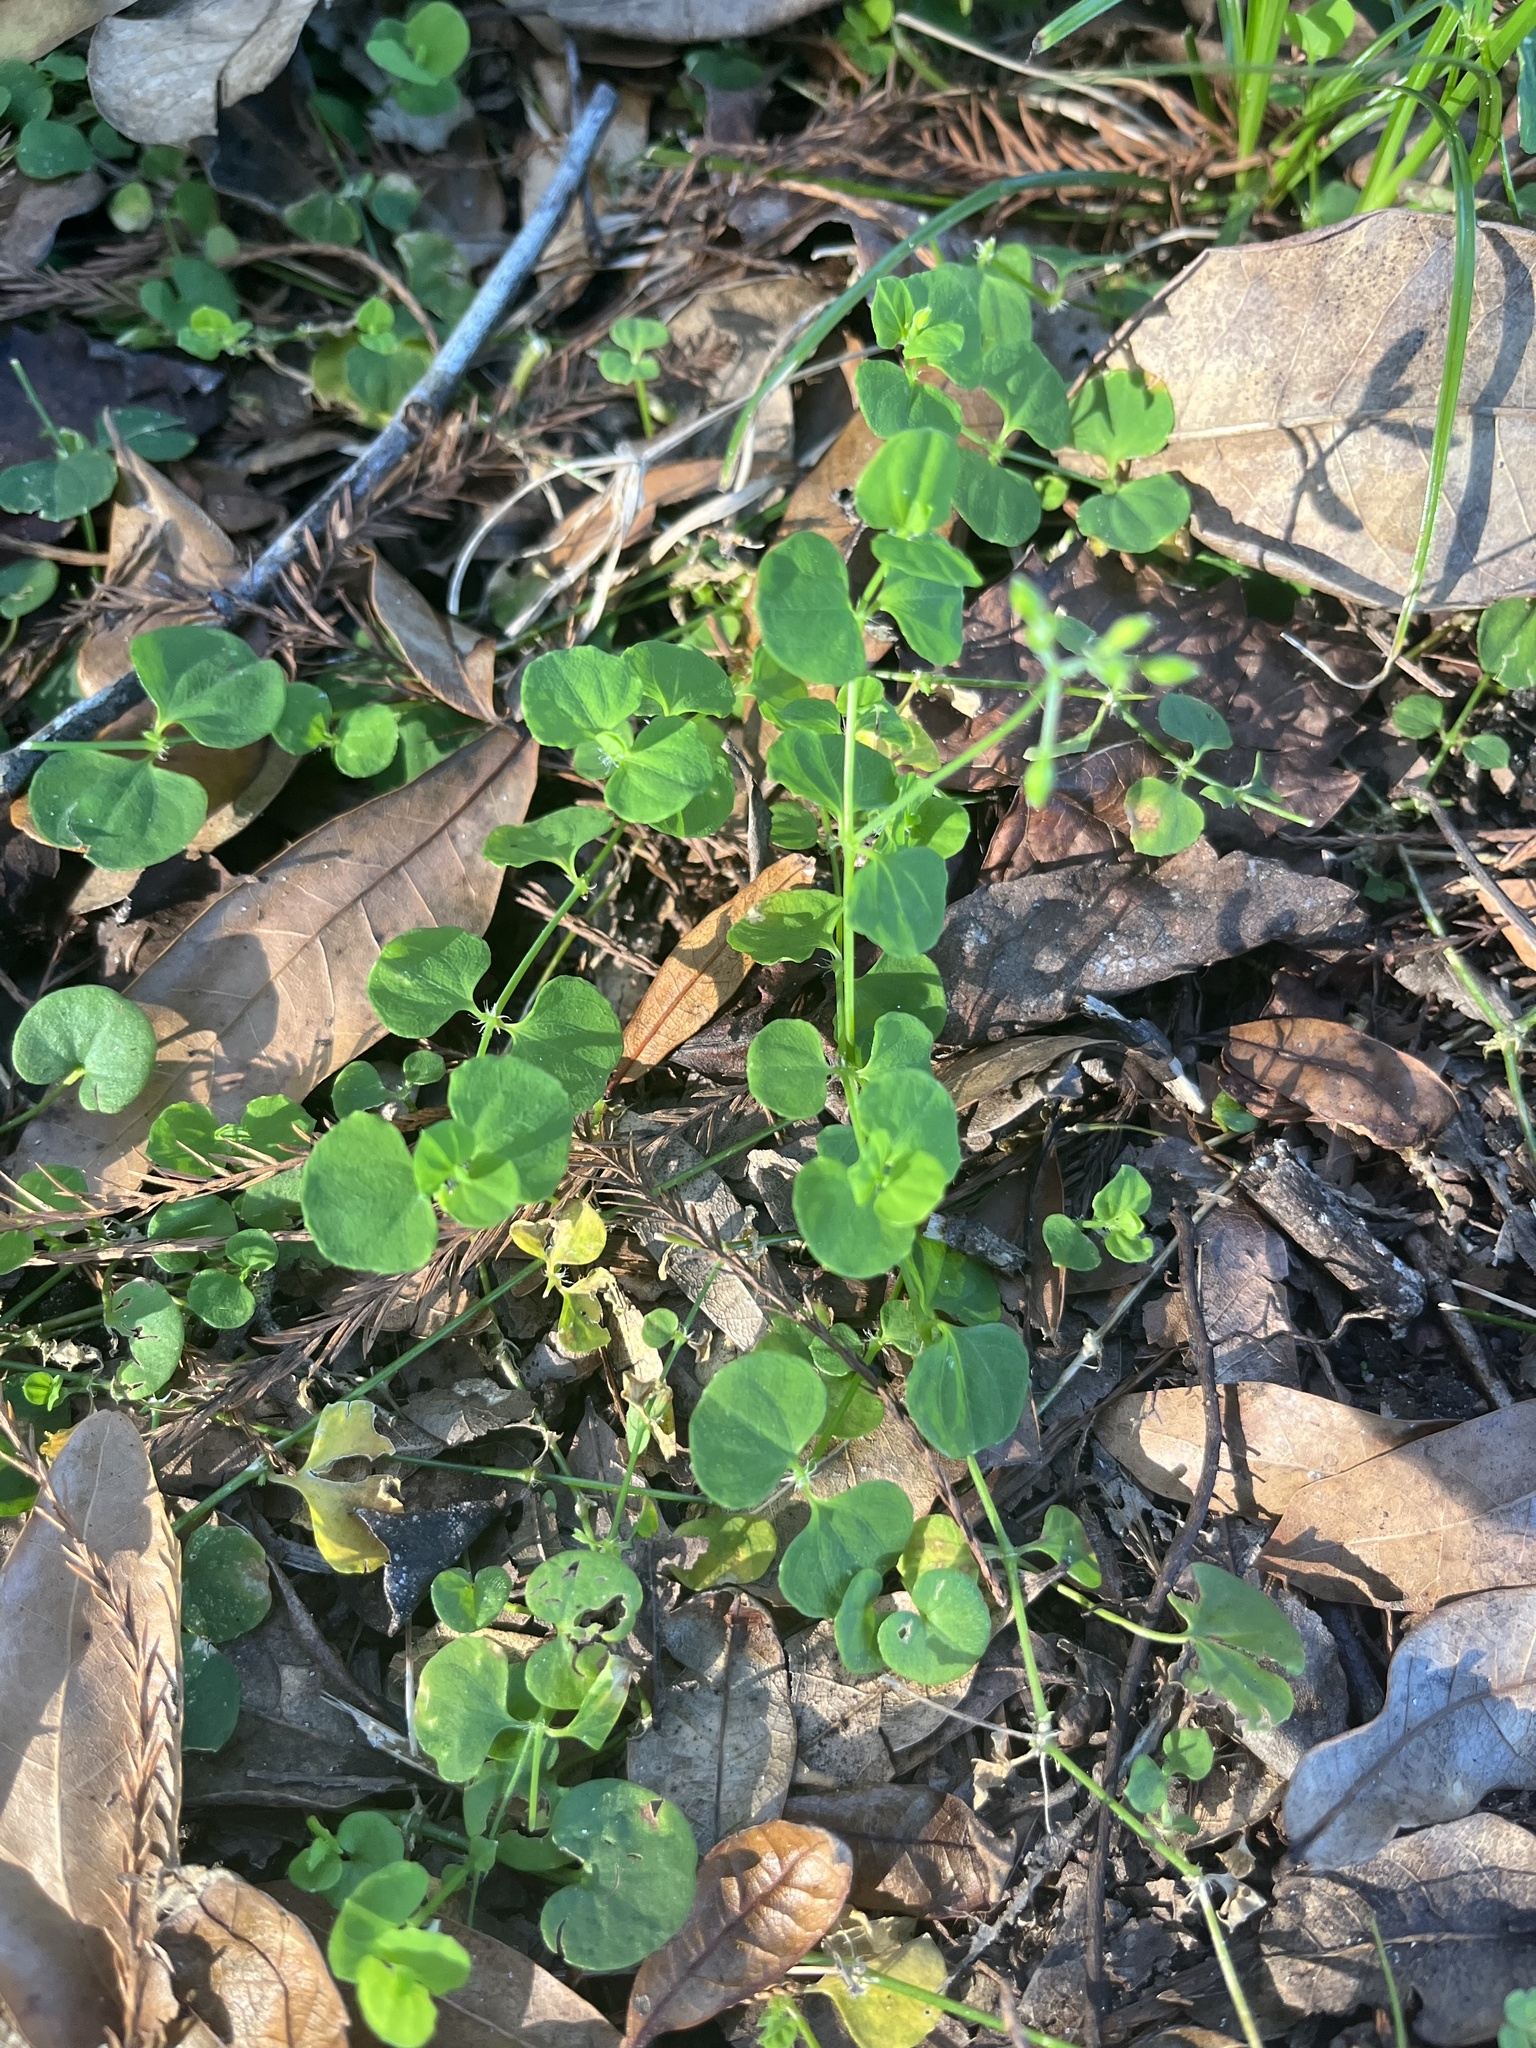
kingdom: Plantae
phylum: Tracheophyta
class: Magnoliopsida
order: Caryophyllales
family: Caryophyllaceae
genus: Drymaria
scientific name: Drymaria cordata
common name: Whitesnow
